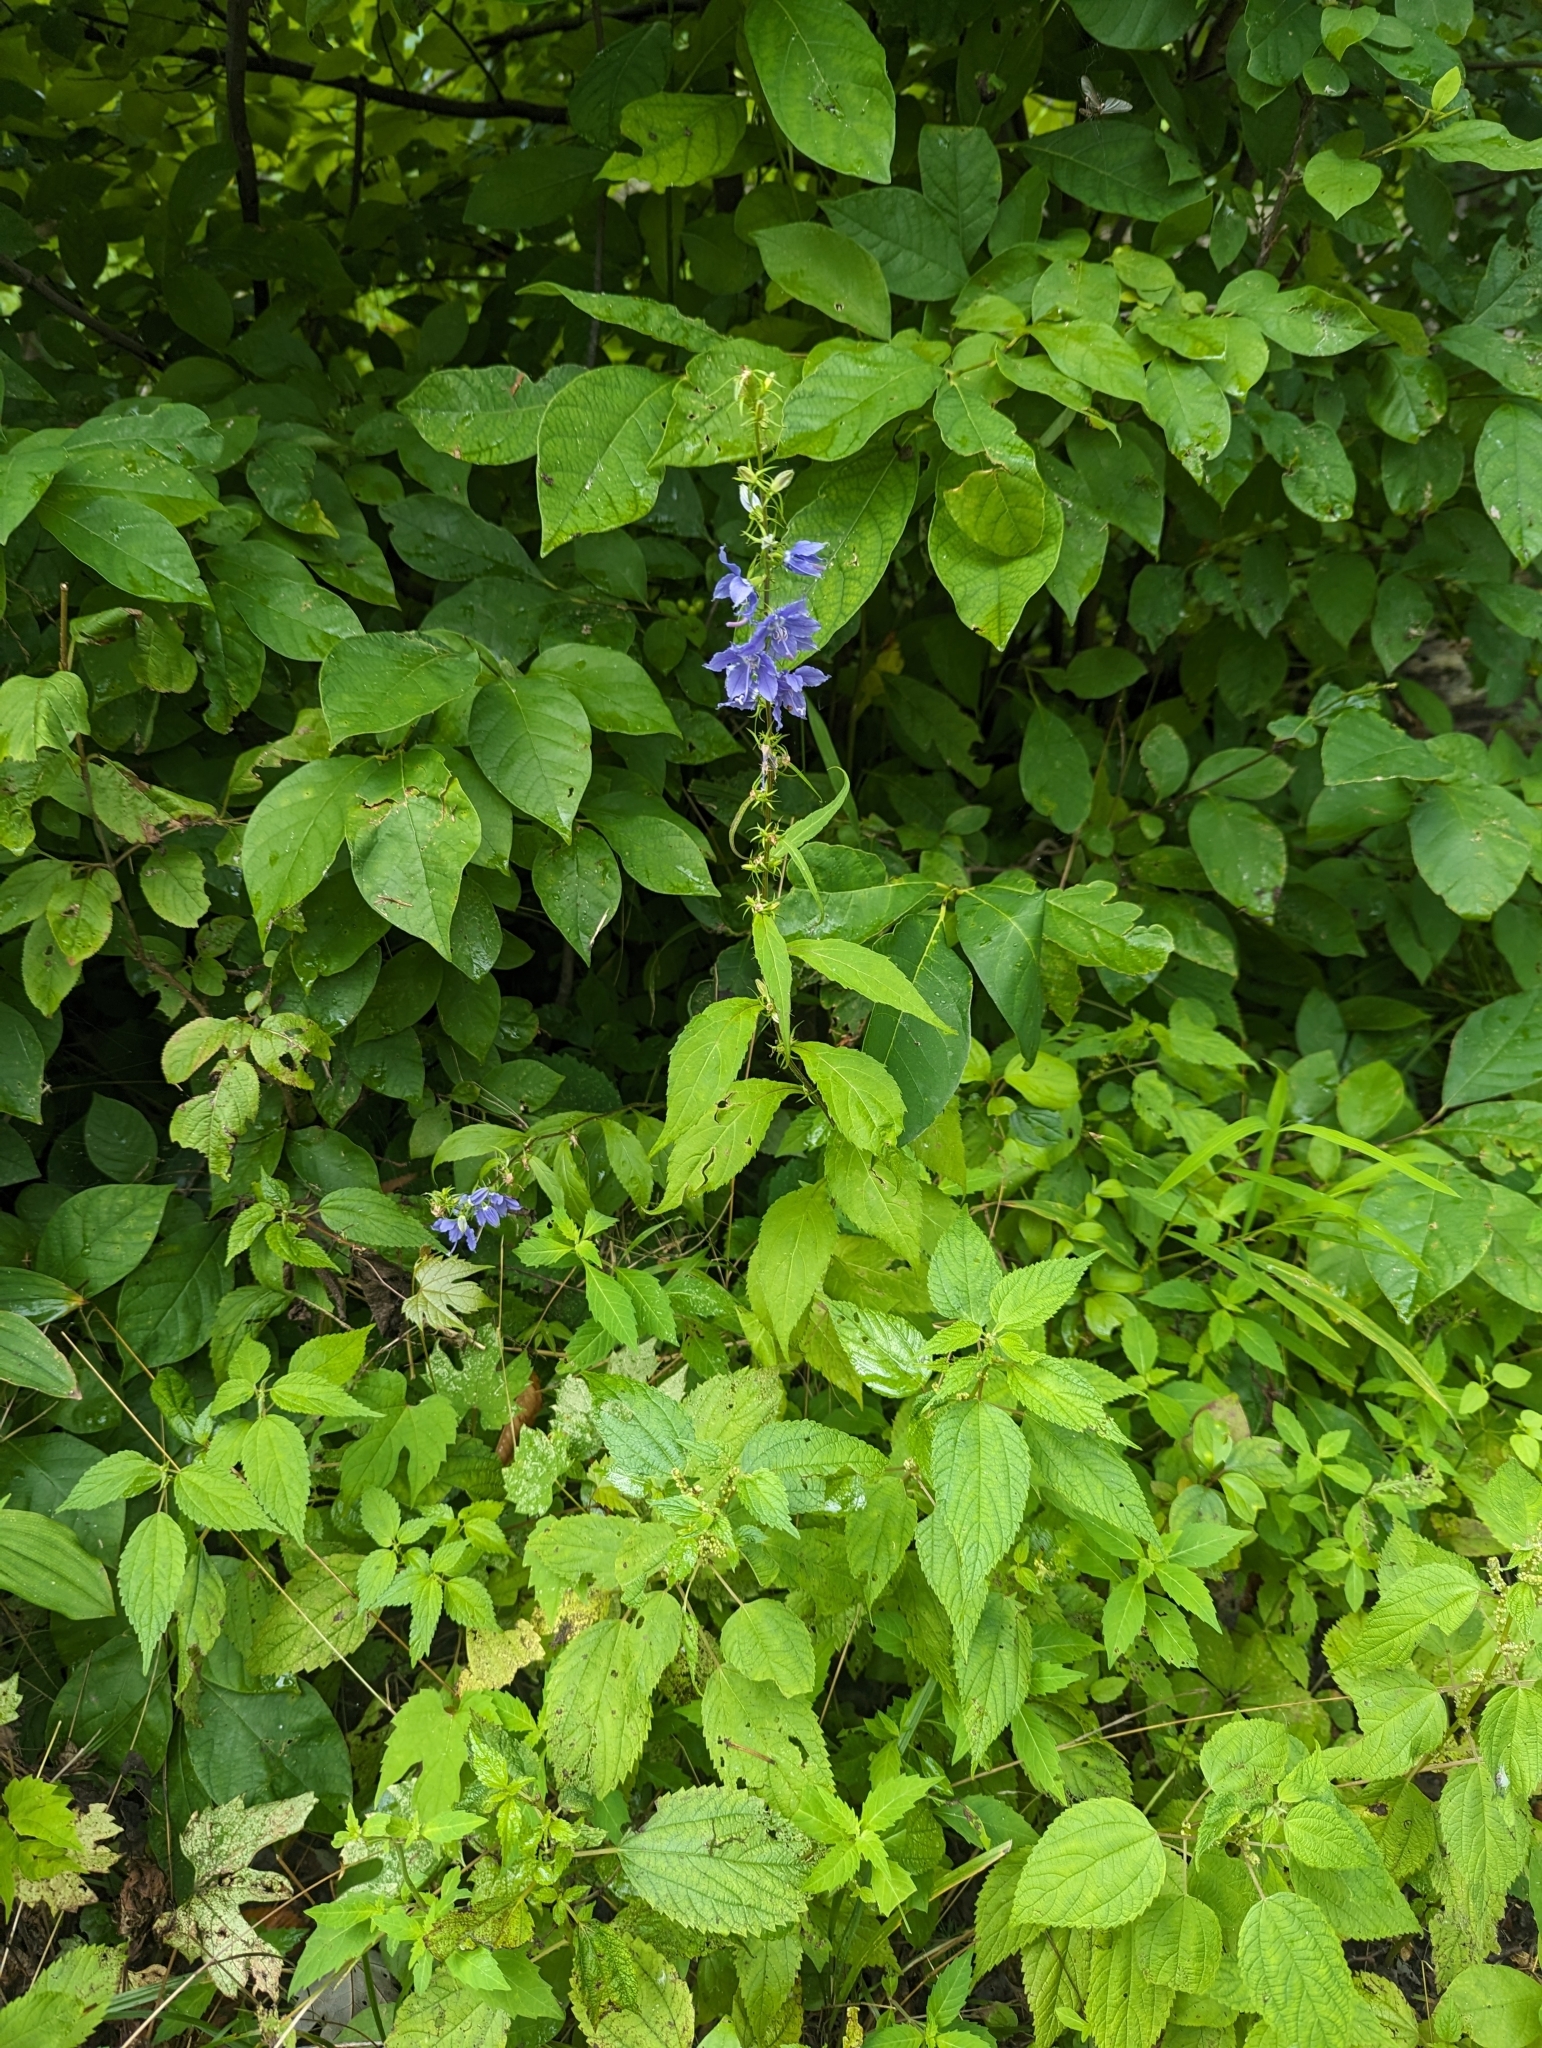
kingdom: Plantae
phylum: Tracheophyta
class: Magnoliopsida
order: Asterales
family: Campanulaceae
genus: Campanulastrum
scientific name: Campanulastrum americanum
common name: American bellflower
